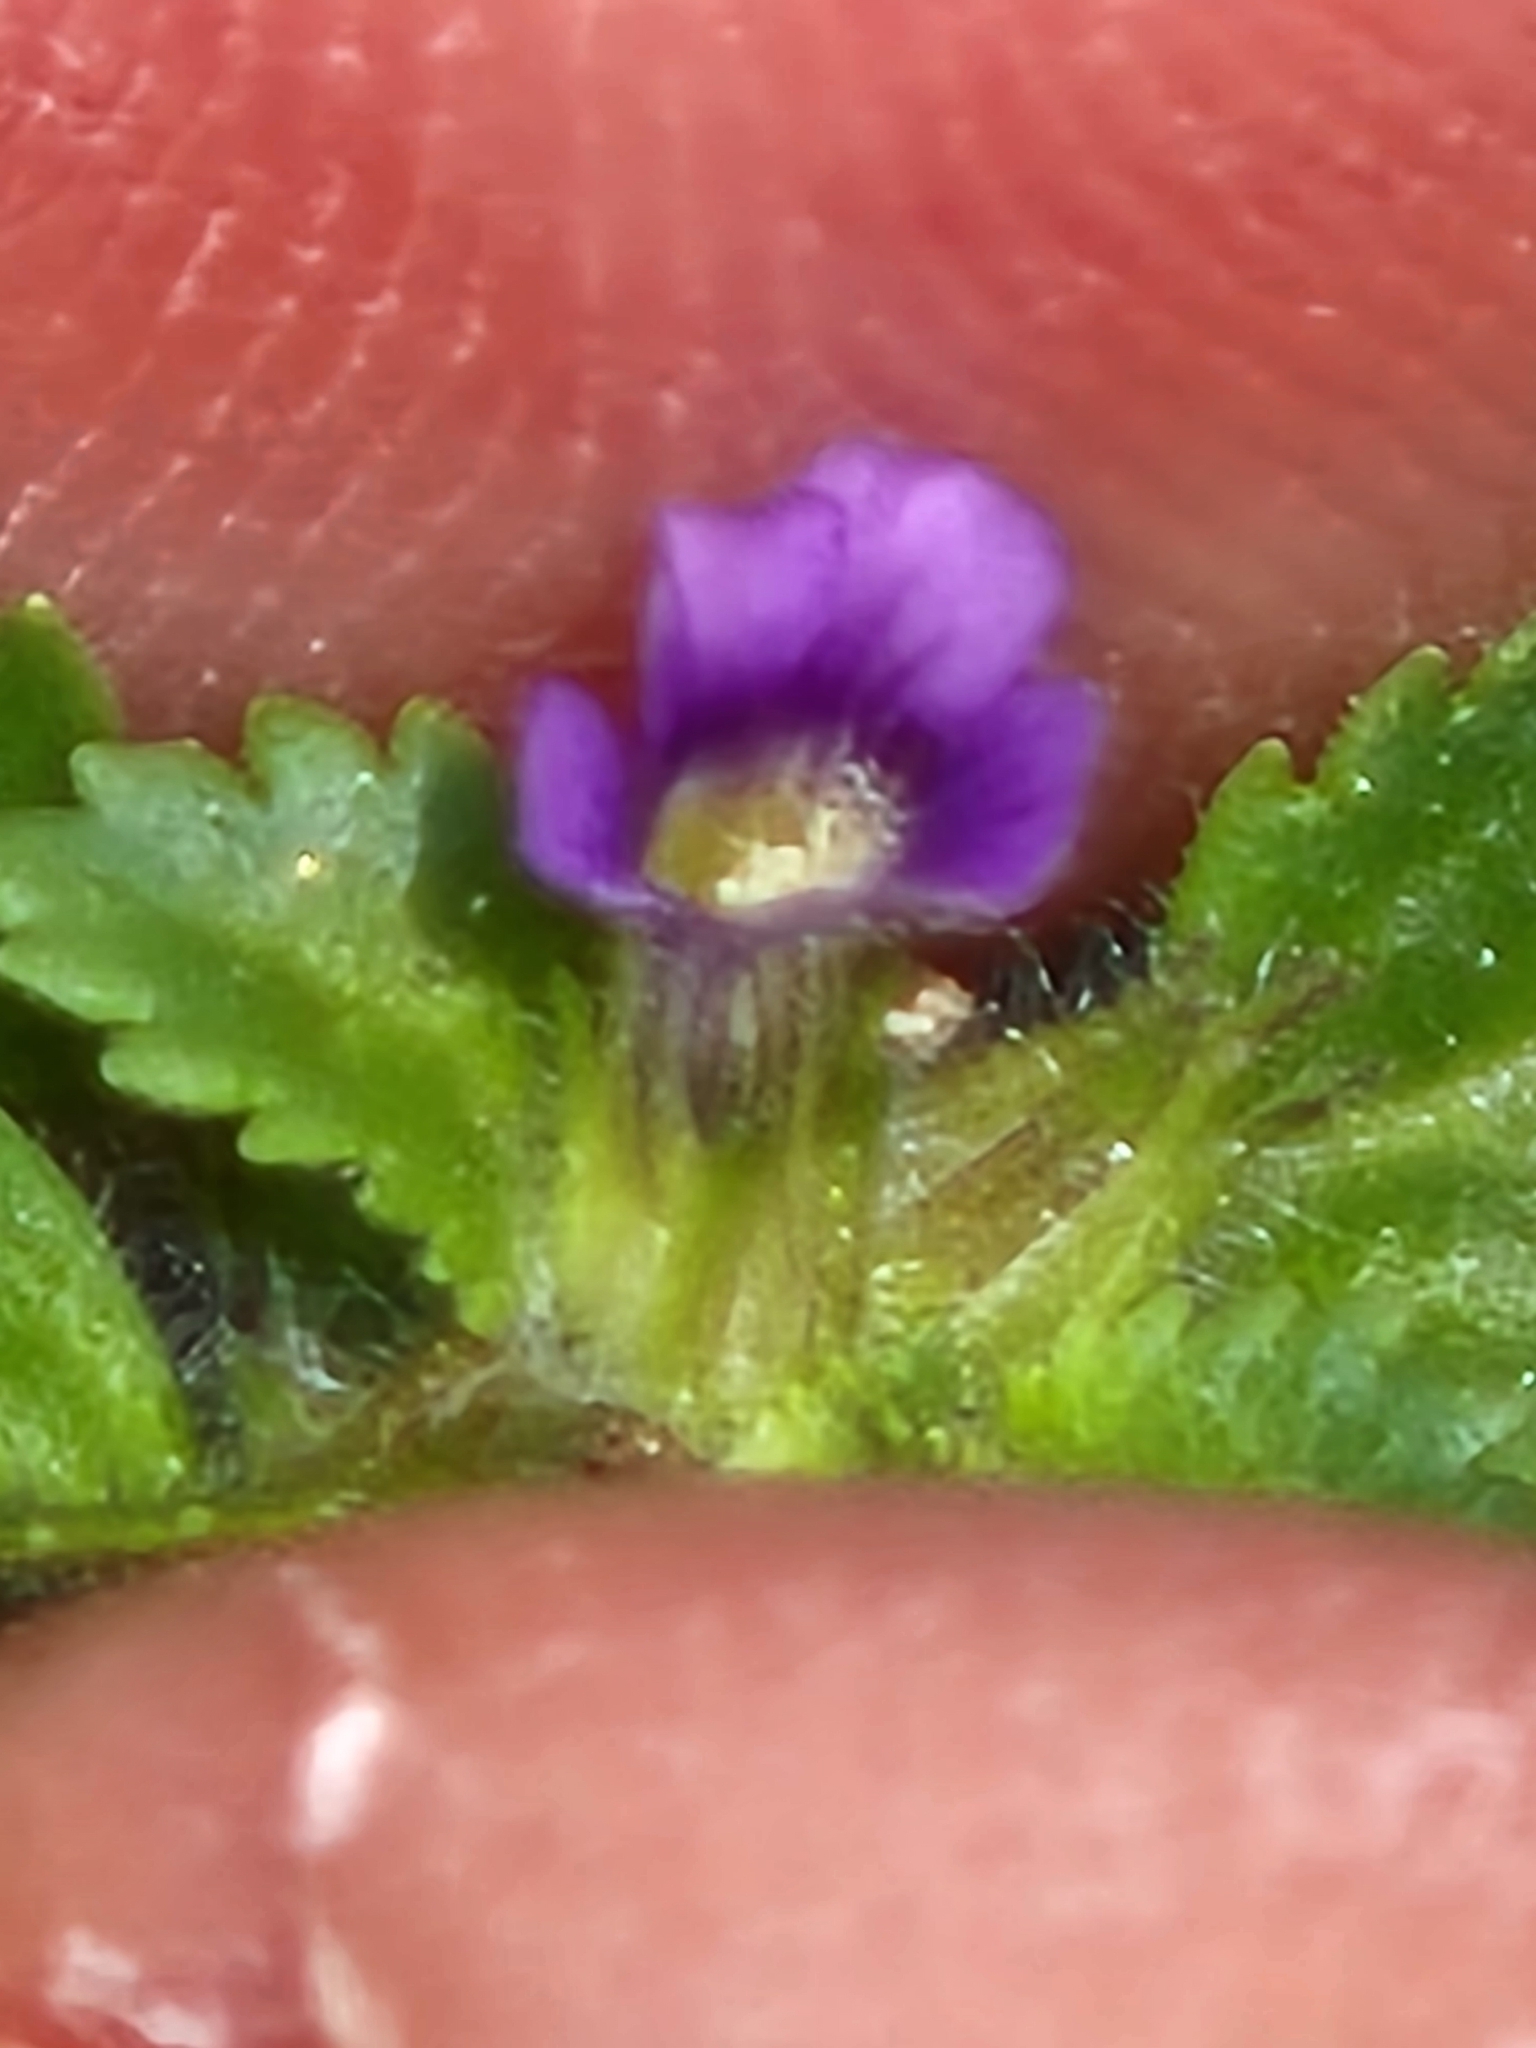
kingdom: Plantae
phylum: Tracheophyta
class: Magnoliopsida
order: Lamiales
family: Plantaginaceae
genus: Stemodia
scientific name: Stemodia verticillata
